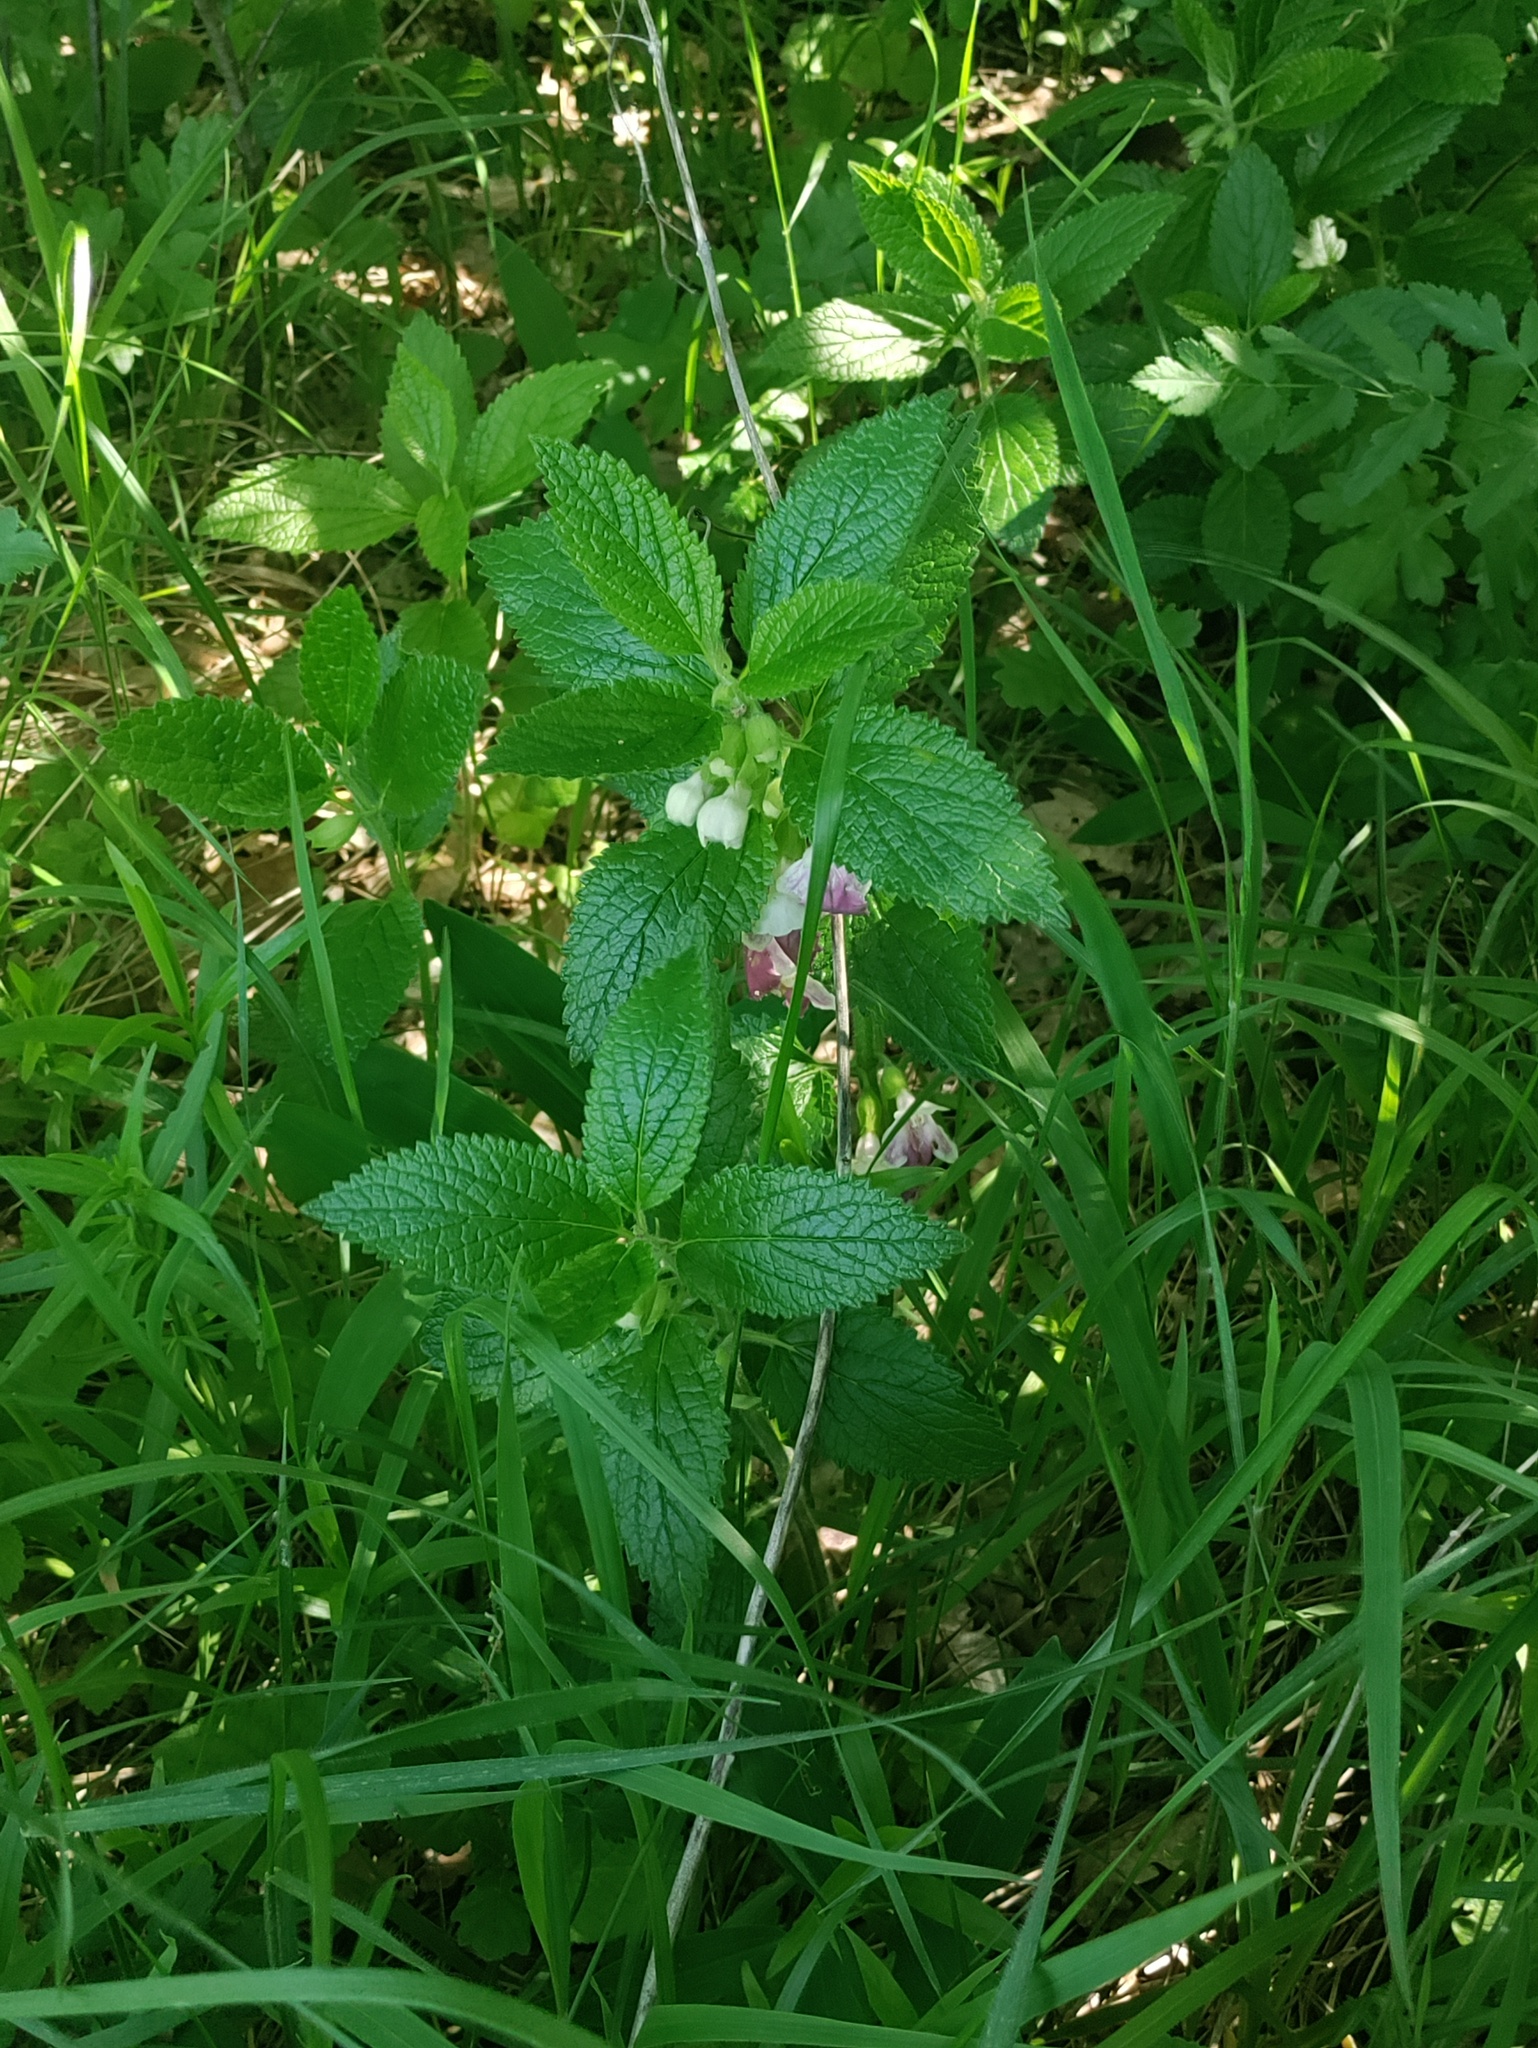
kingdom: Plantae
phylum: Tracheophyta
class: Magnoliopsida
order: Lamiales
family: Lamiaceae
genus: Melittis
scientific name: Melittis melissophyllum
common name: Bastard balm
